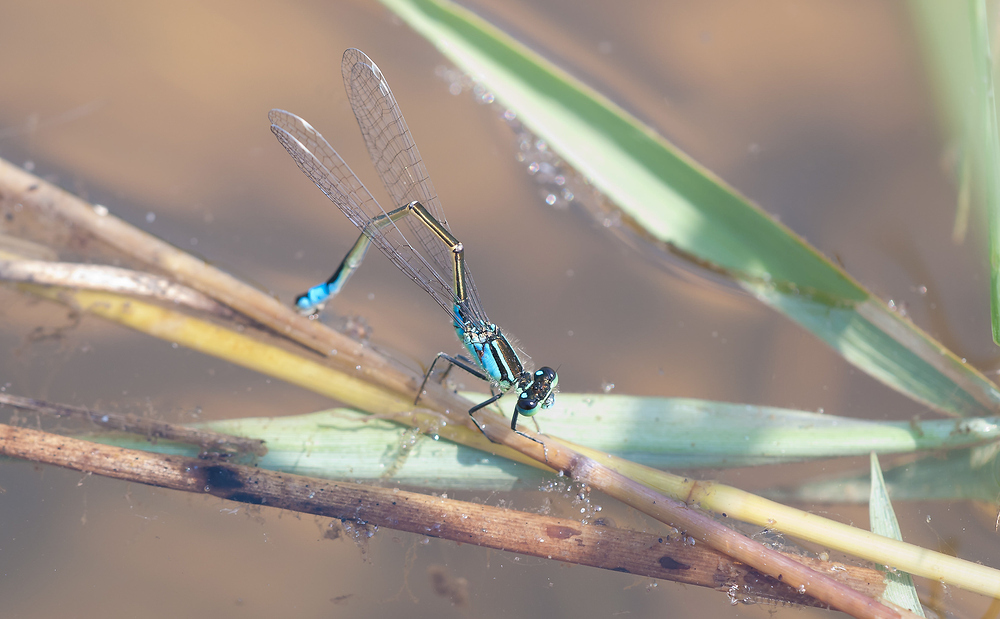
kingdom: Animalia
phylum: Arthropoda
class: Insecta
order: Odonata
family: Coenagrionidae
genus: Ischnura
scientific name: Ischnura elegans
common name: Blue-tailed damselfly
